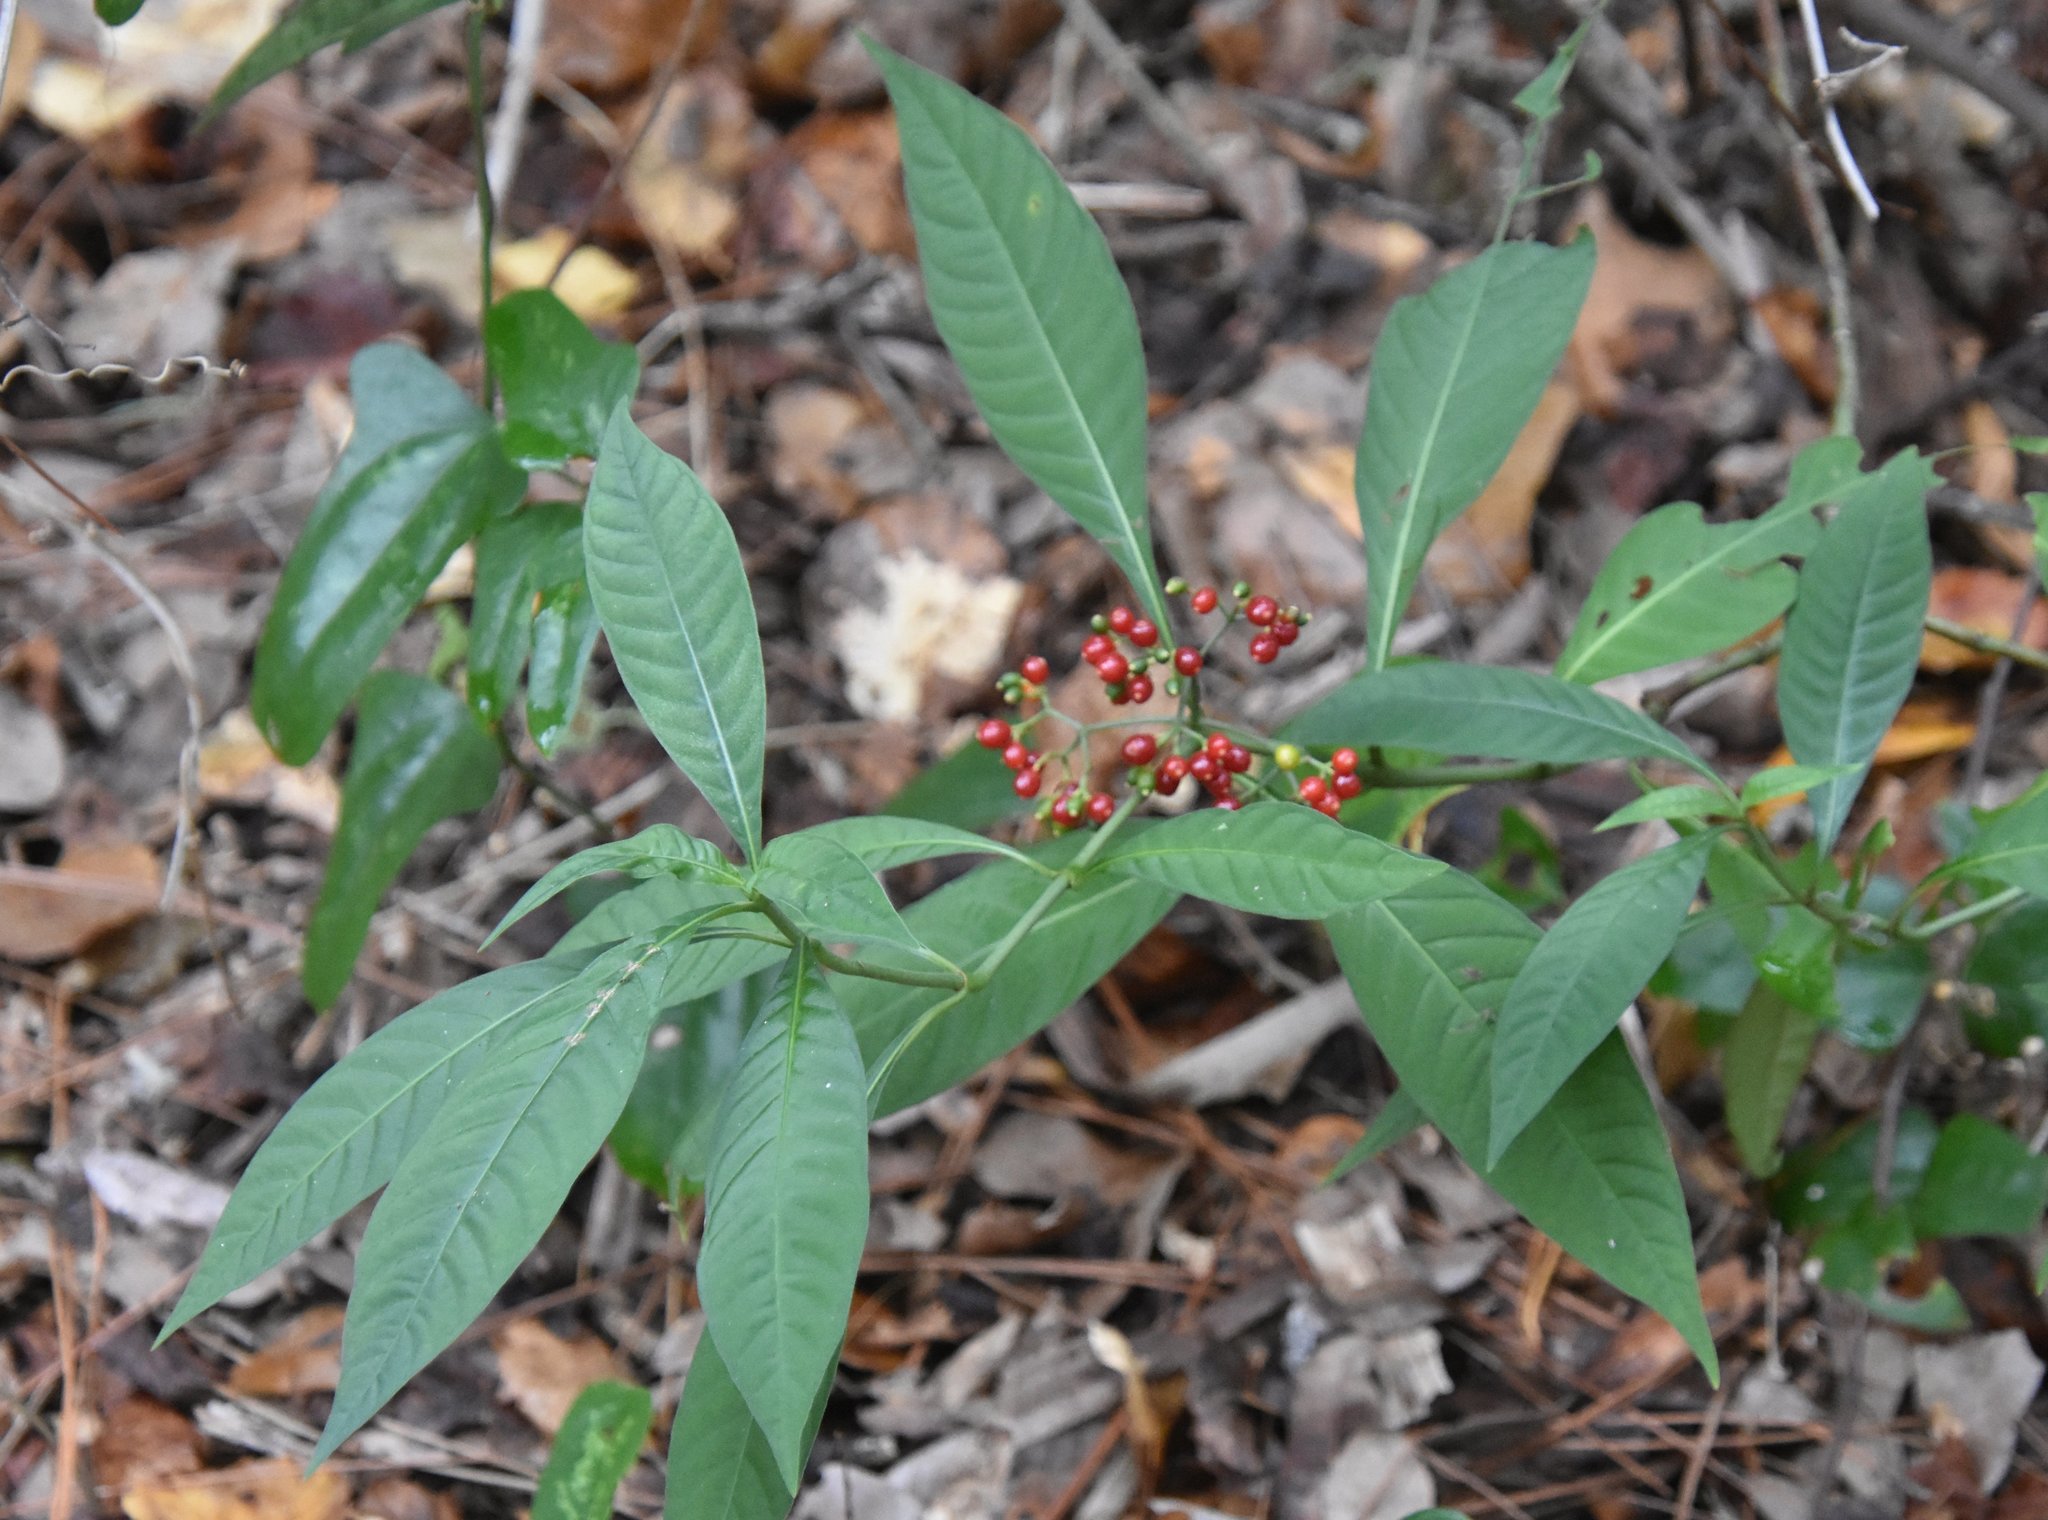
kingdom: Plantae
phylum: Tracheophyta
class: Magnoliopsida
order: Gentianales
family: Rubiaceae
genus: Psychotria
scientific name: Psychotria tenuifolia
